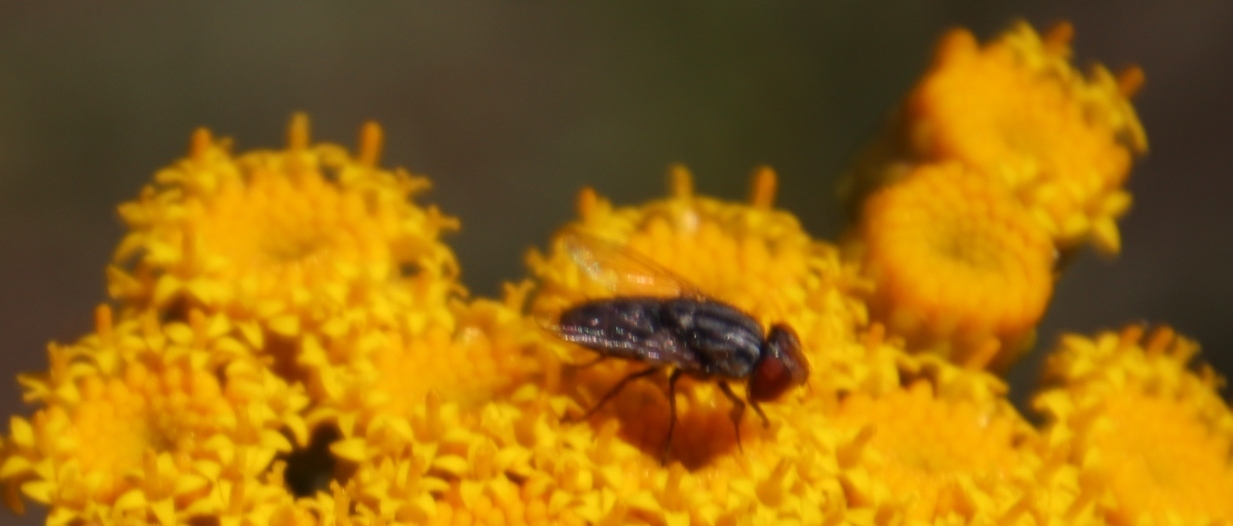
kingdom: Plantae
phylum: Tracheophyta
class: Magnoliopsida
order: Asterales
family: Asteraceae
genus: Athanasia
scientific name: Athanasia crithmifolia
